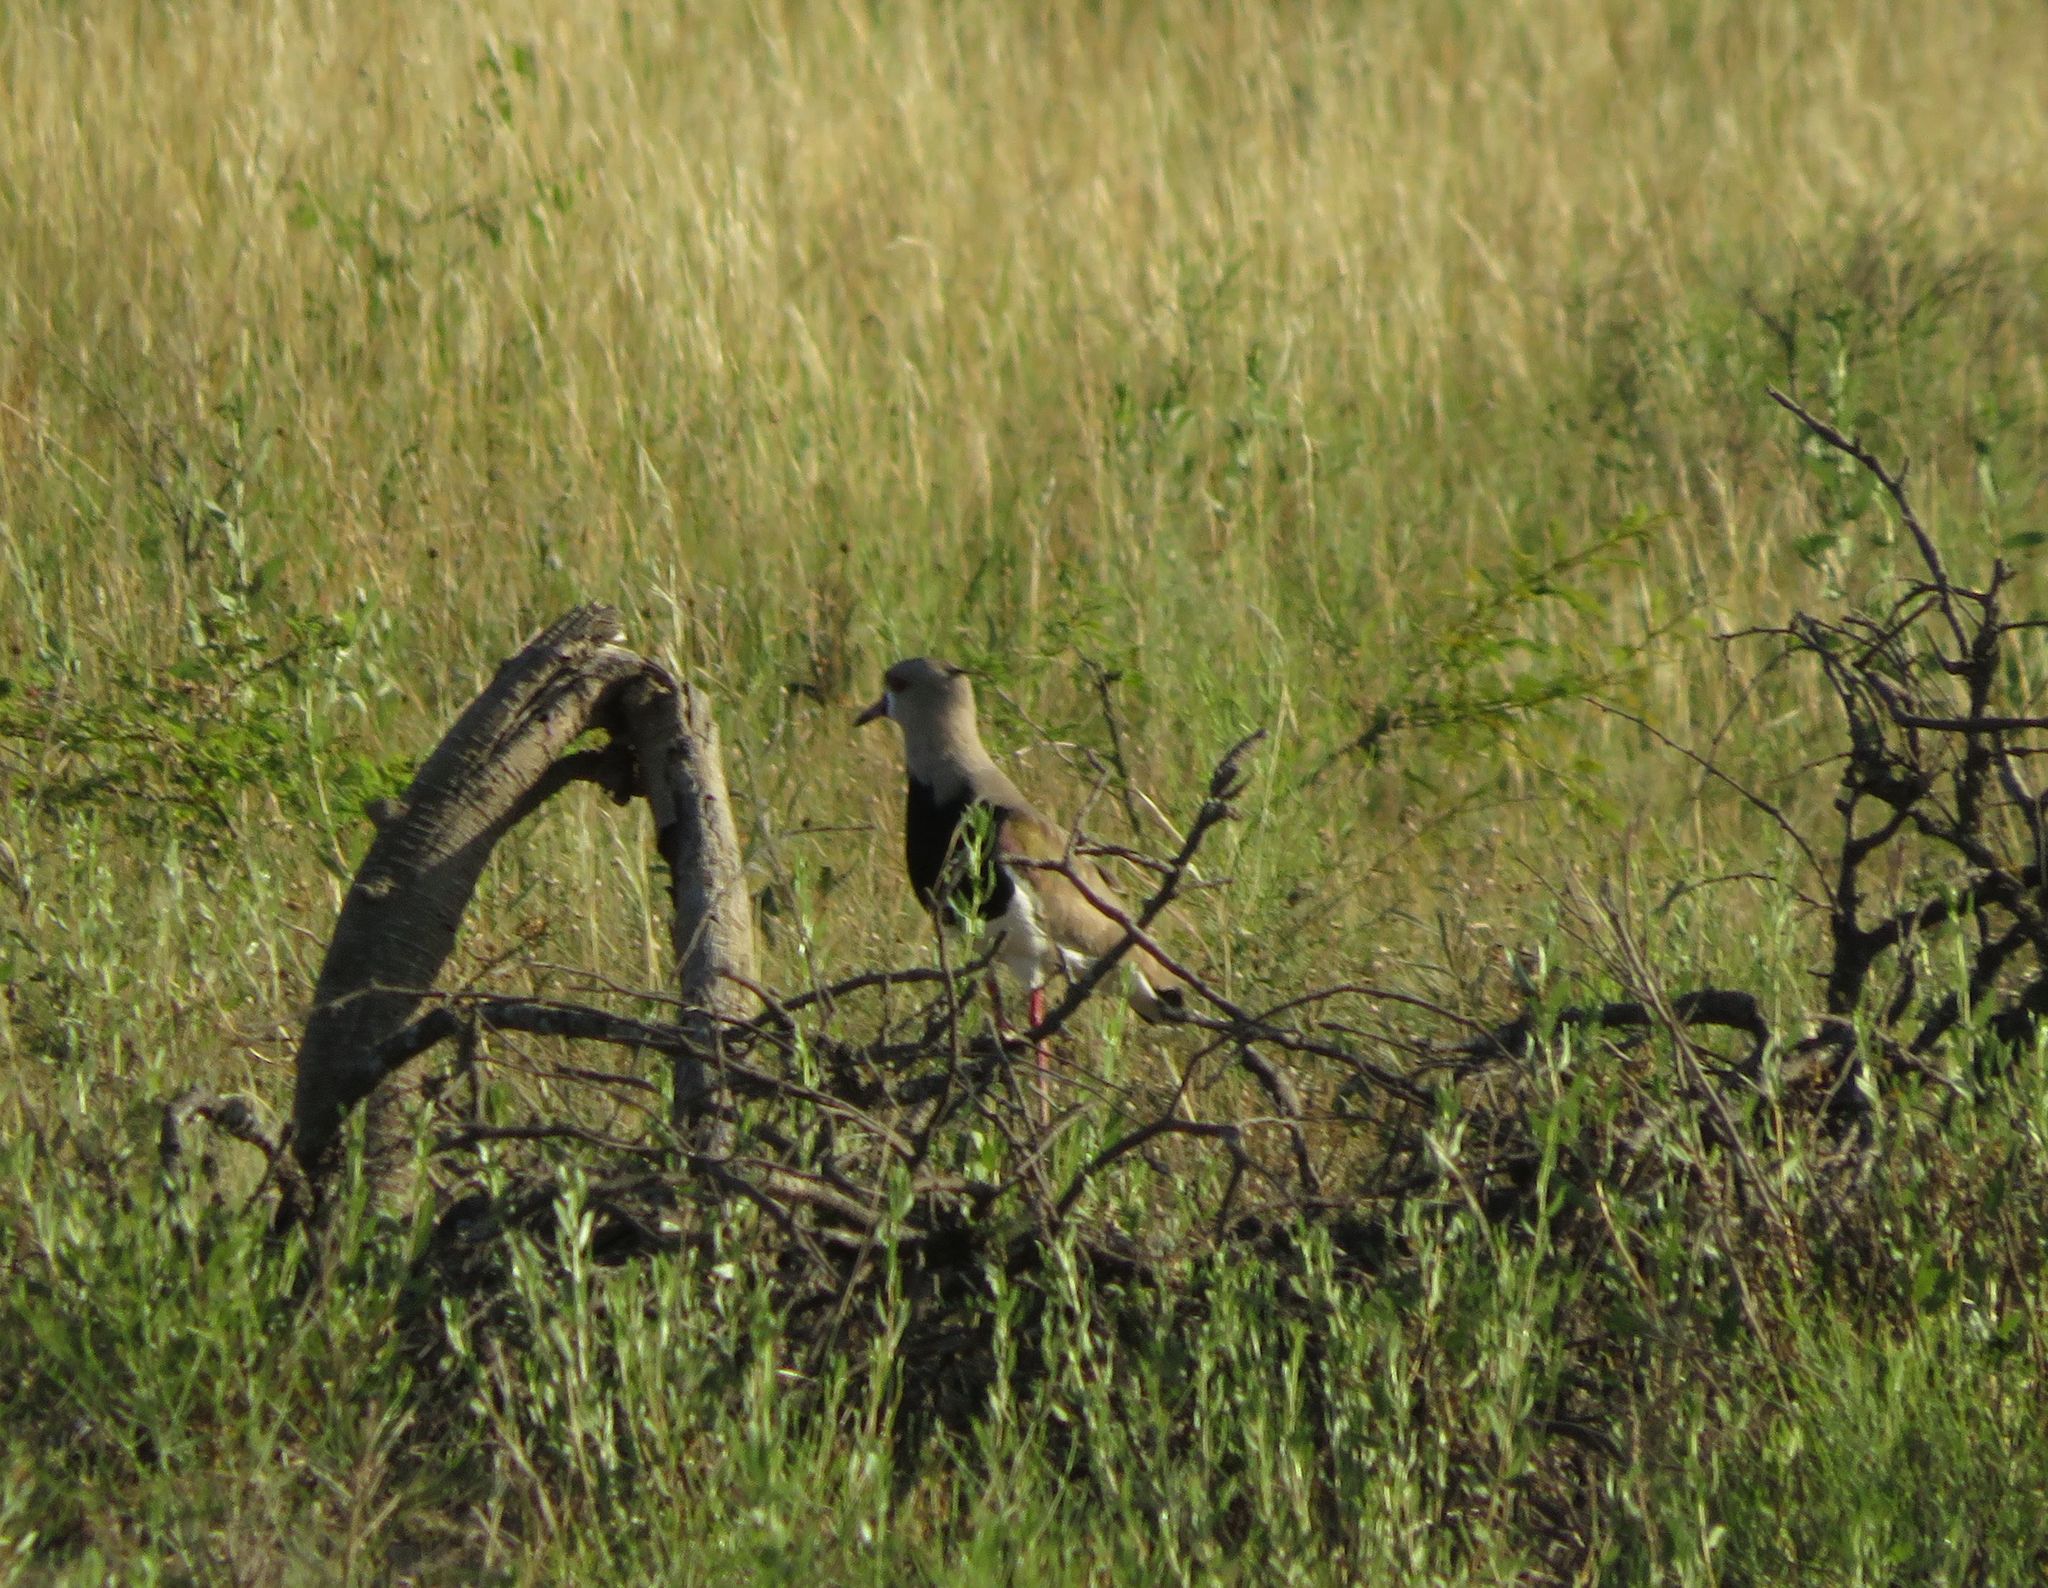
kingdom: Animalia
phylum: Chordata
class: Aves
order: Charadriiformes
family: Charadriidae
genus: Vanellus
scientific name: Vanellus chilensis
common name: Southern lapwing
